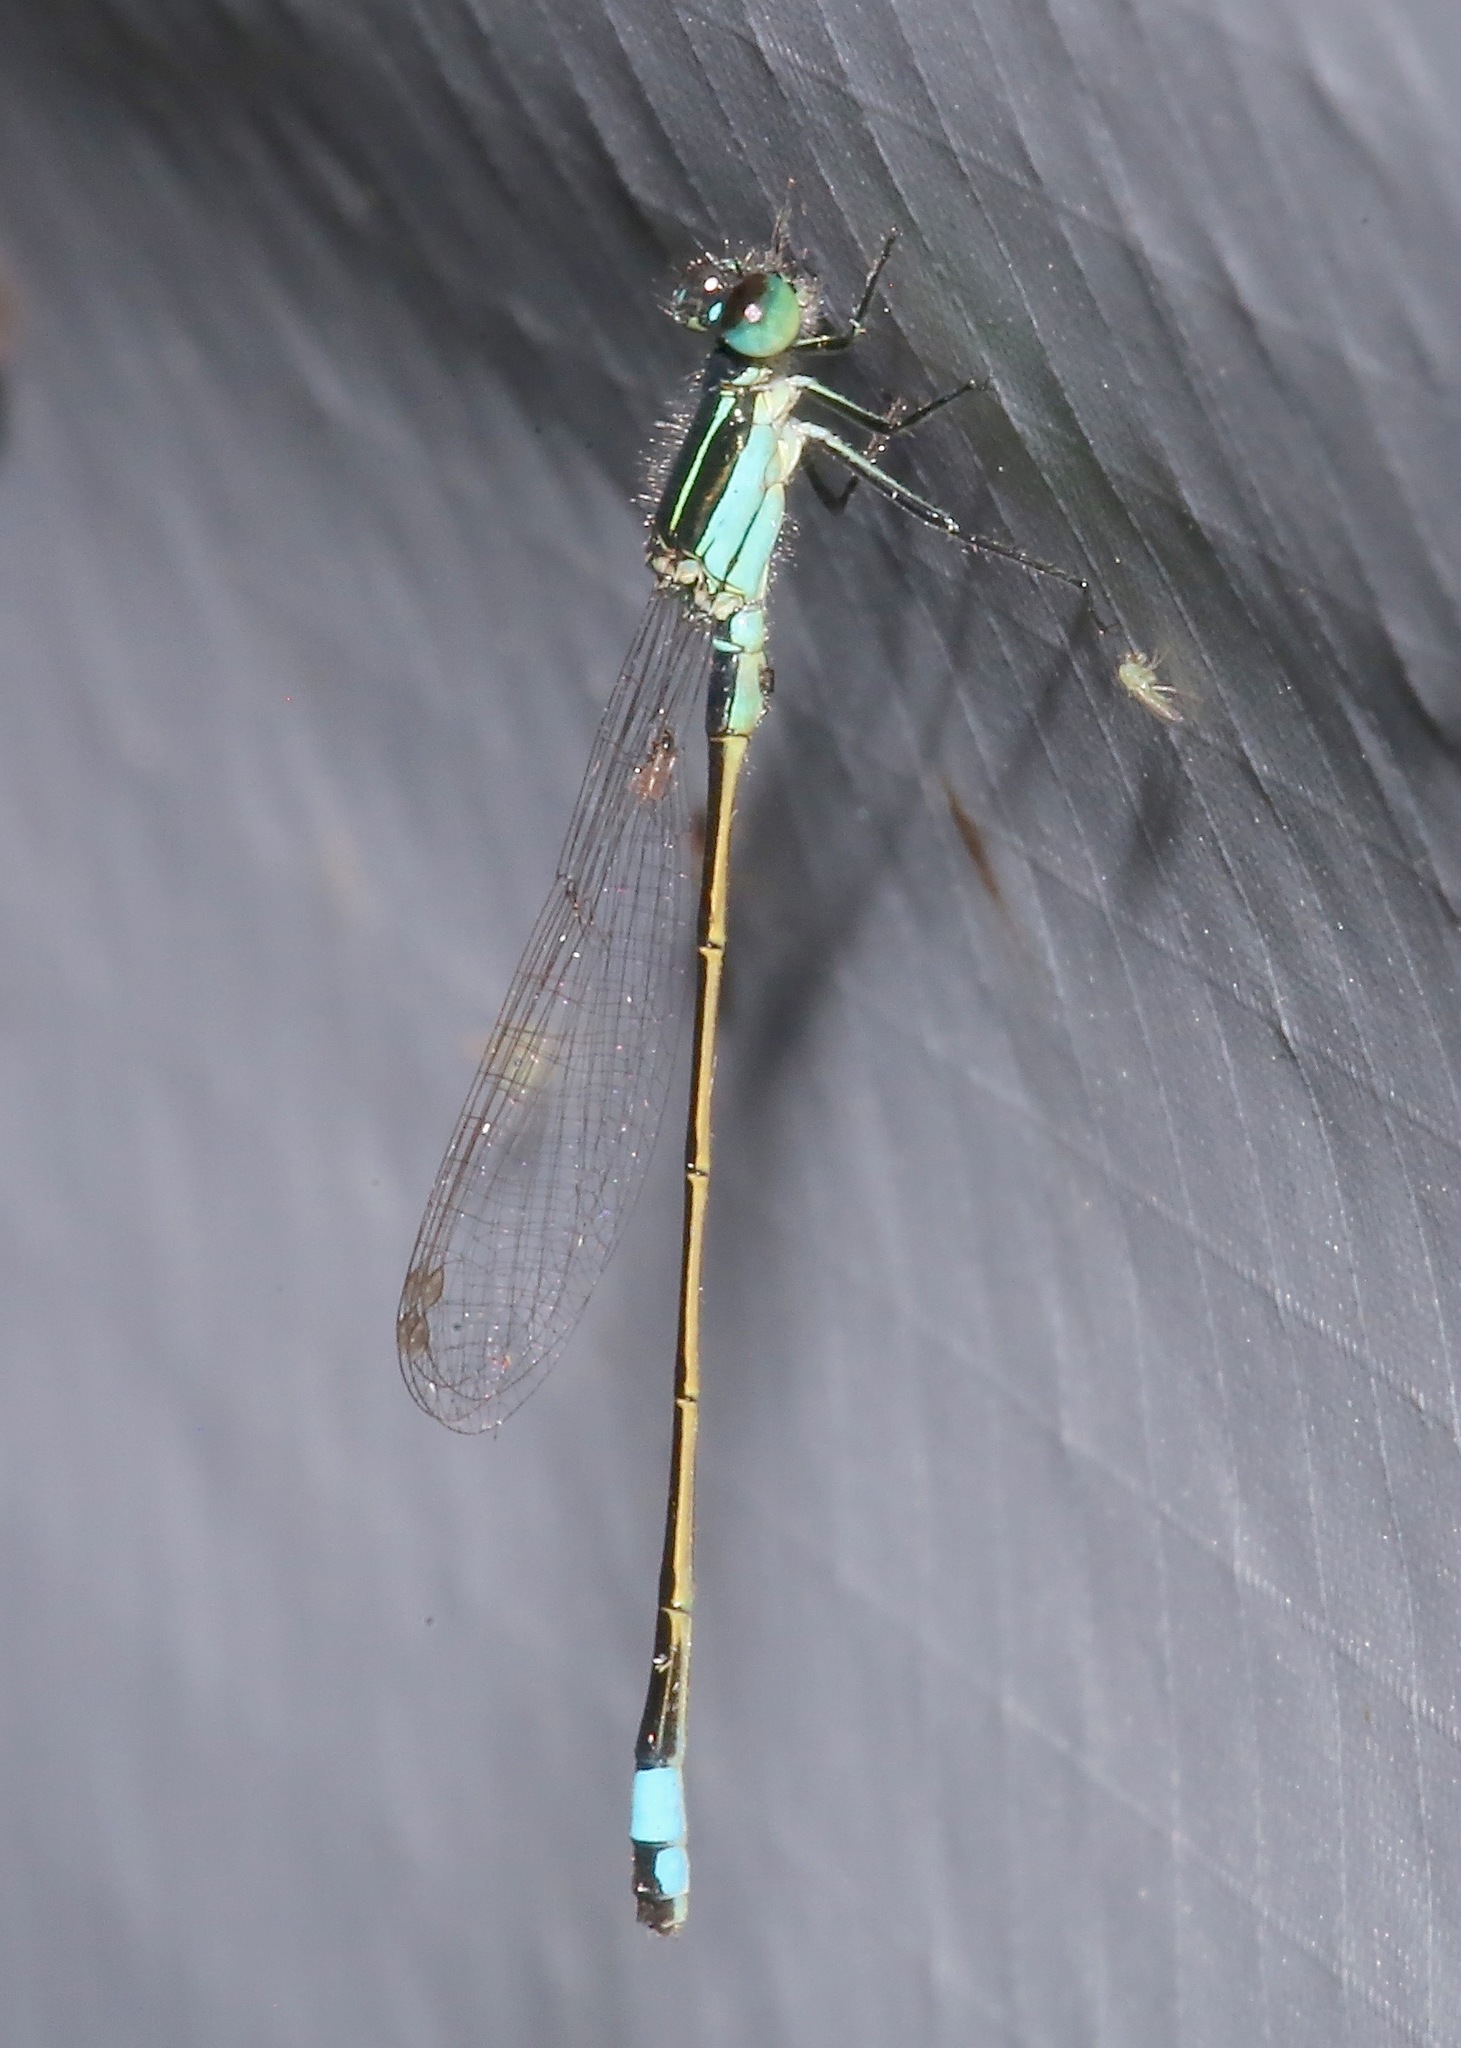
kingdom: Animalia
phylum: Arthropoda
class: Insecta
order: Odonata
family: Coenagrionidae
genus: Ischnura
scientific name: Ischnura ramburii
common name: Rambur's forktail
